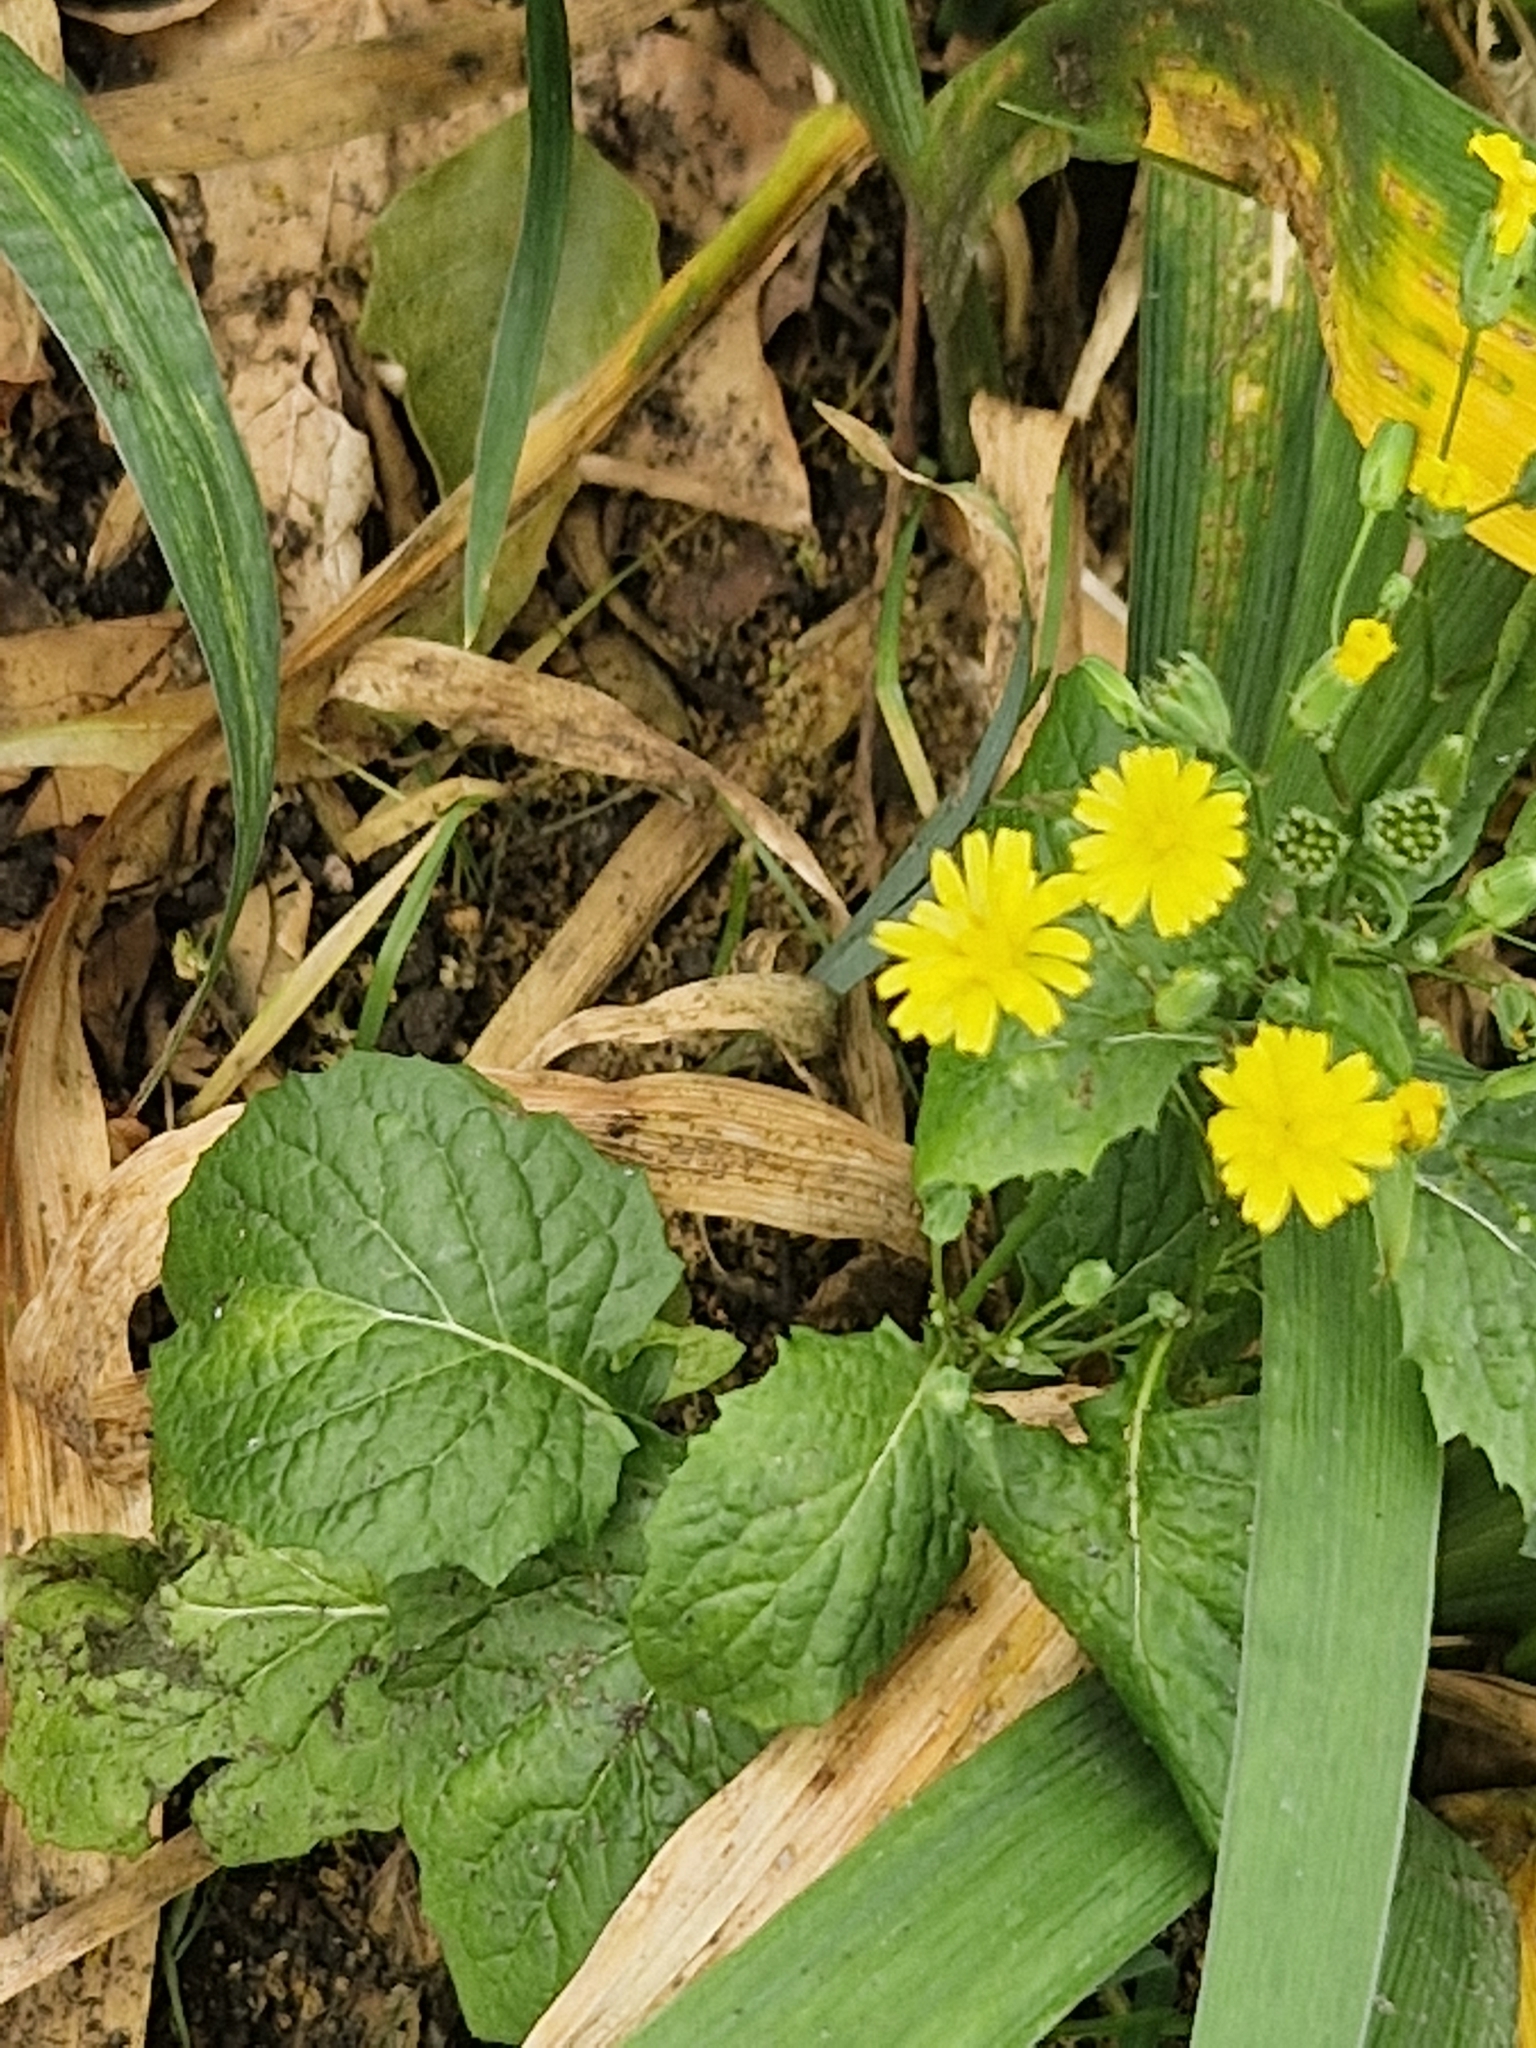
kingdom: Plantae
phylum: Tracheophyta
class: Magnoliopsida
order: Asterales
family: Asteraceae
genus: Lapsana
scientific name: Lapsana communis
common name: Nipplewort
